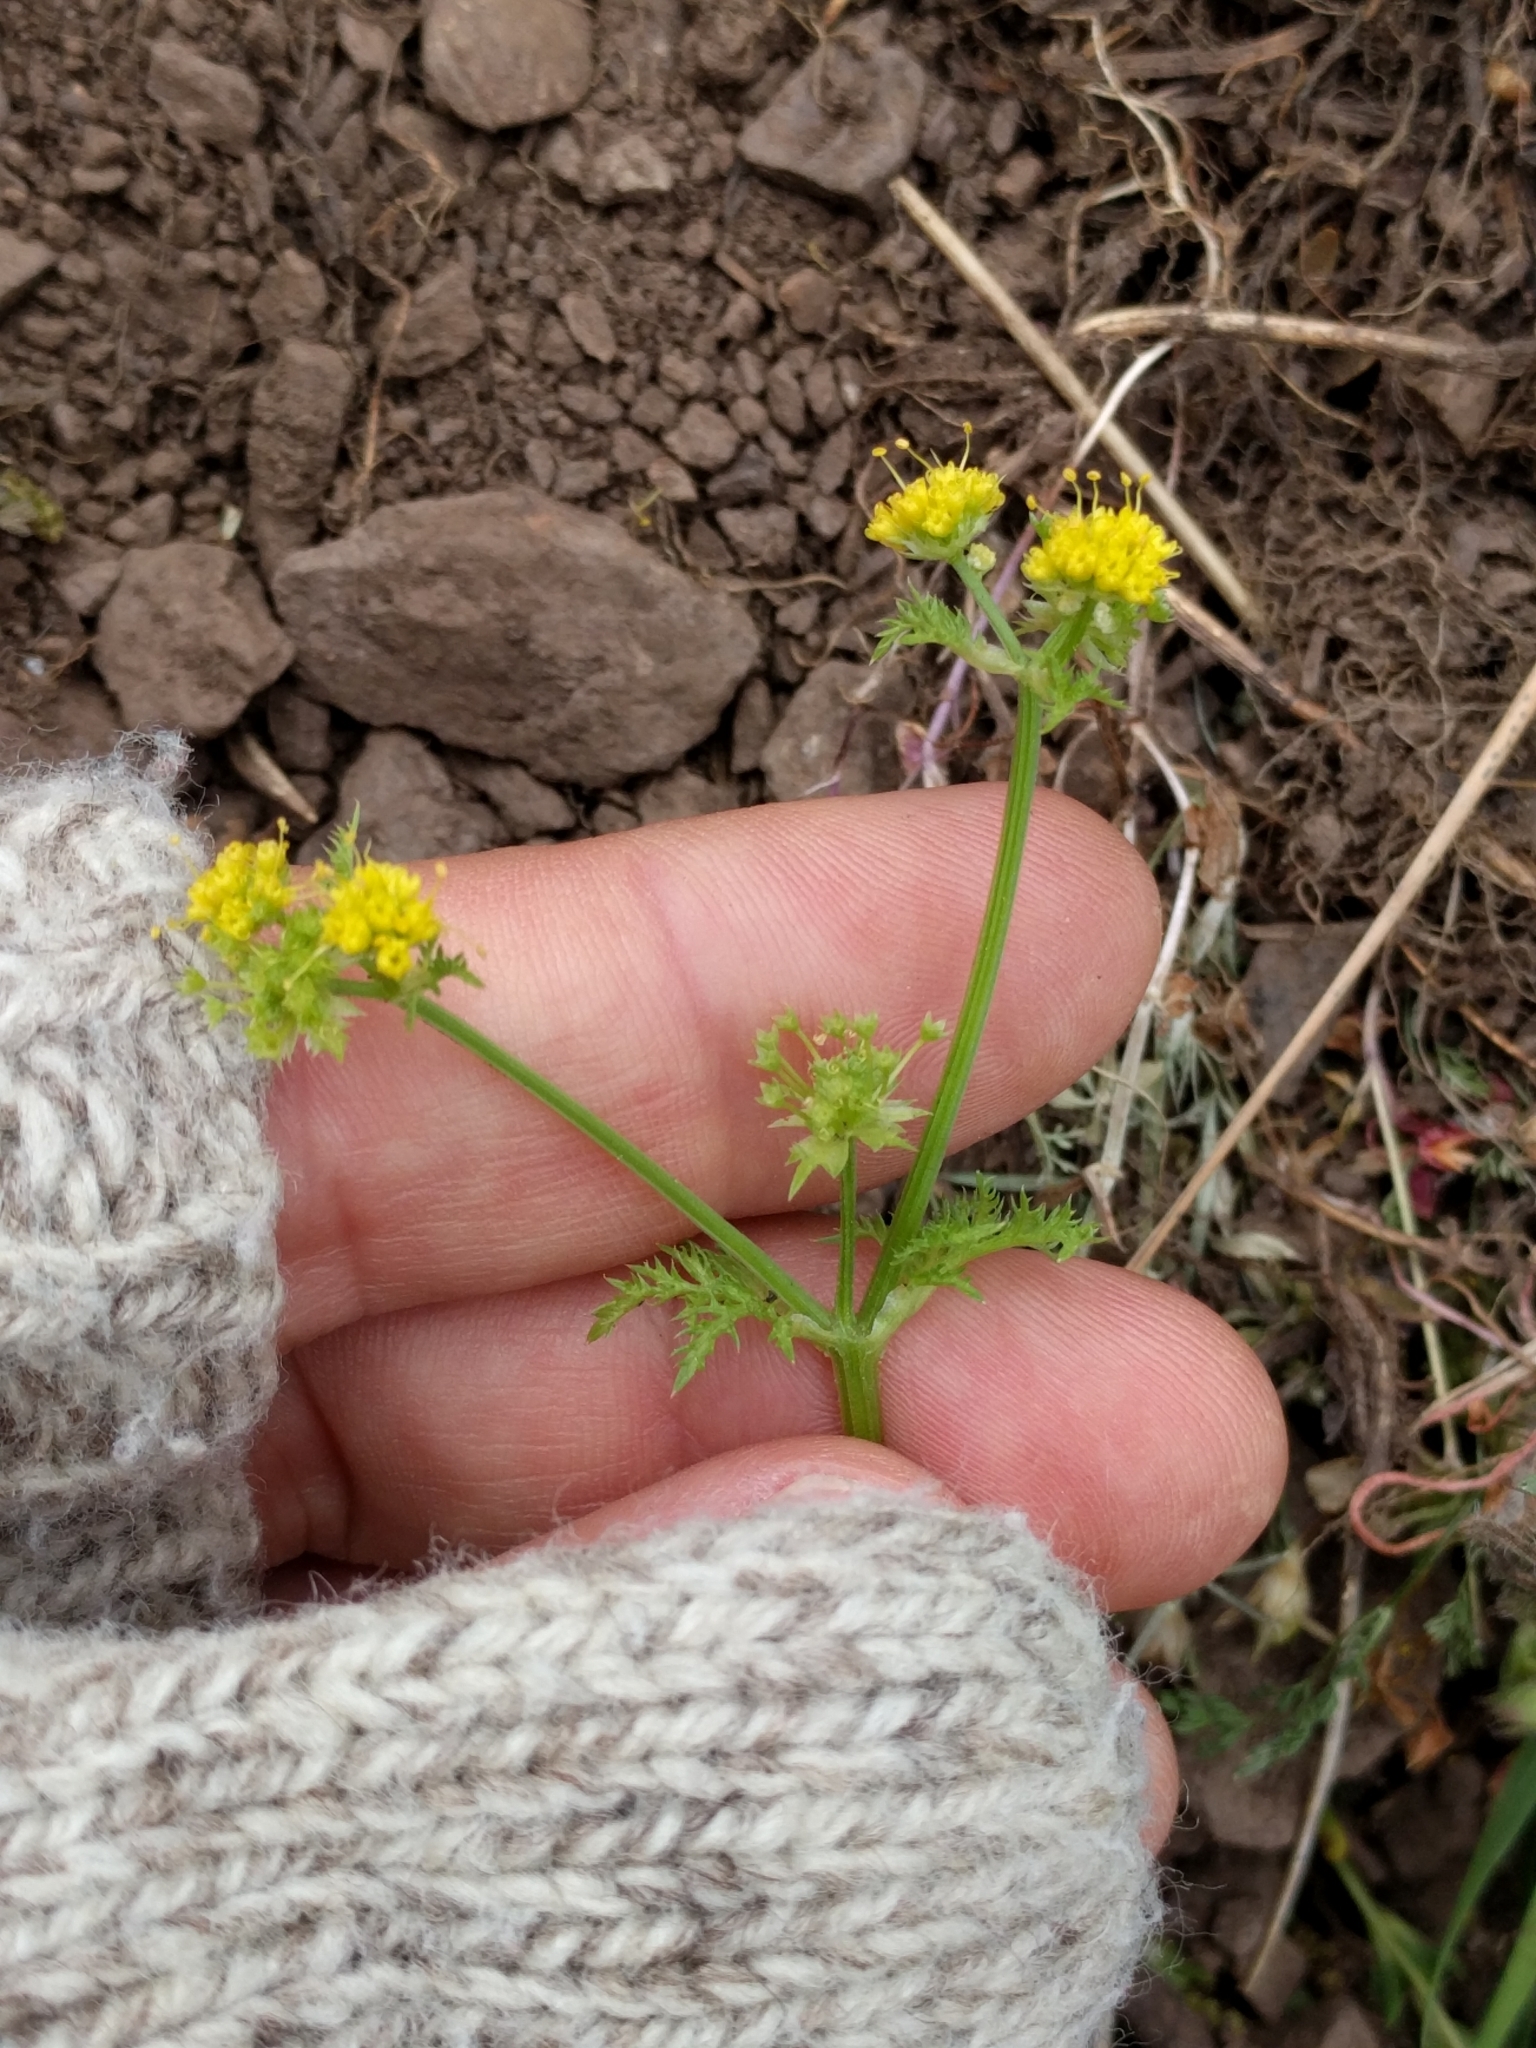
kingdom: Plantae
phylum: Tracheophyta
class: Magnoliopsida
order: Apiales
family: Apiaceae
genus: Sanicula
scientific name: Sanicula tuberosa
